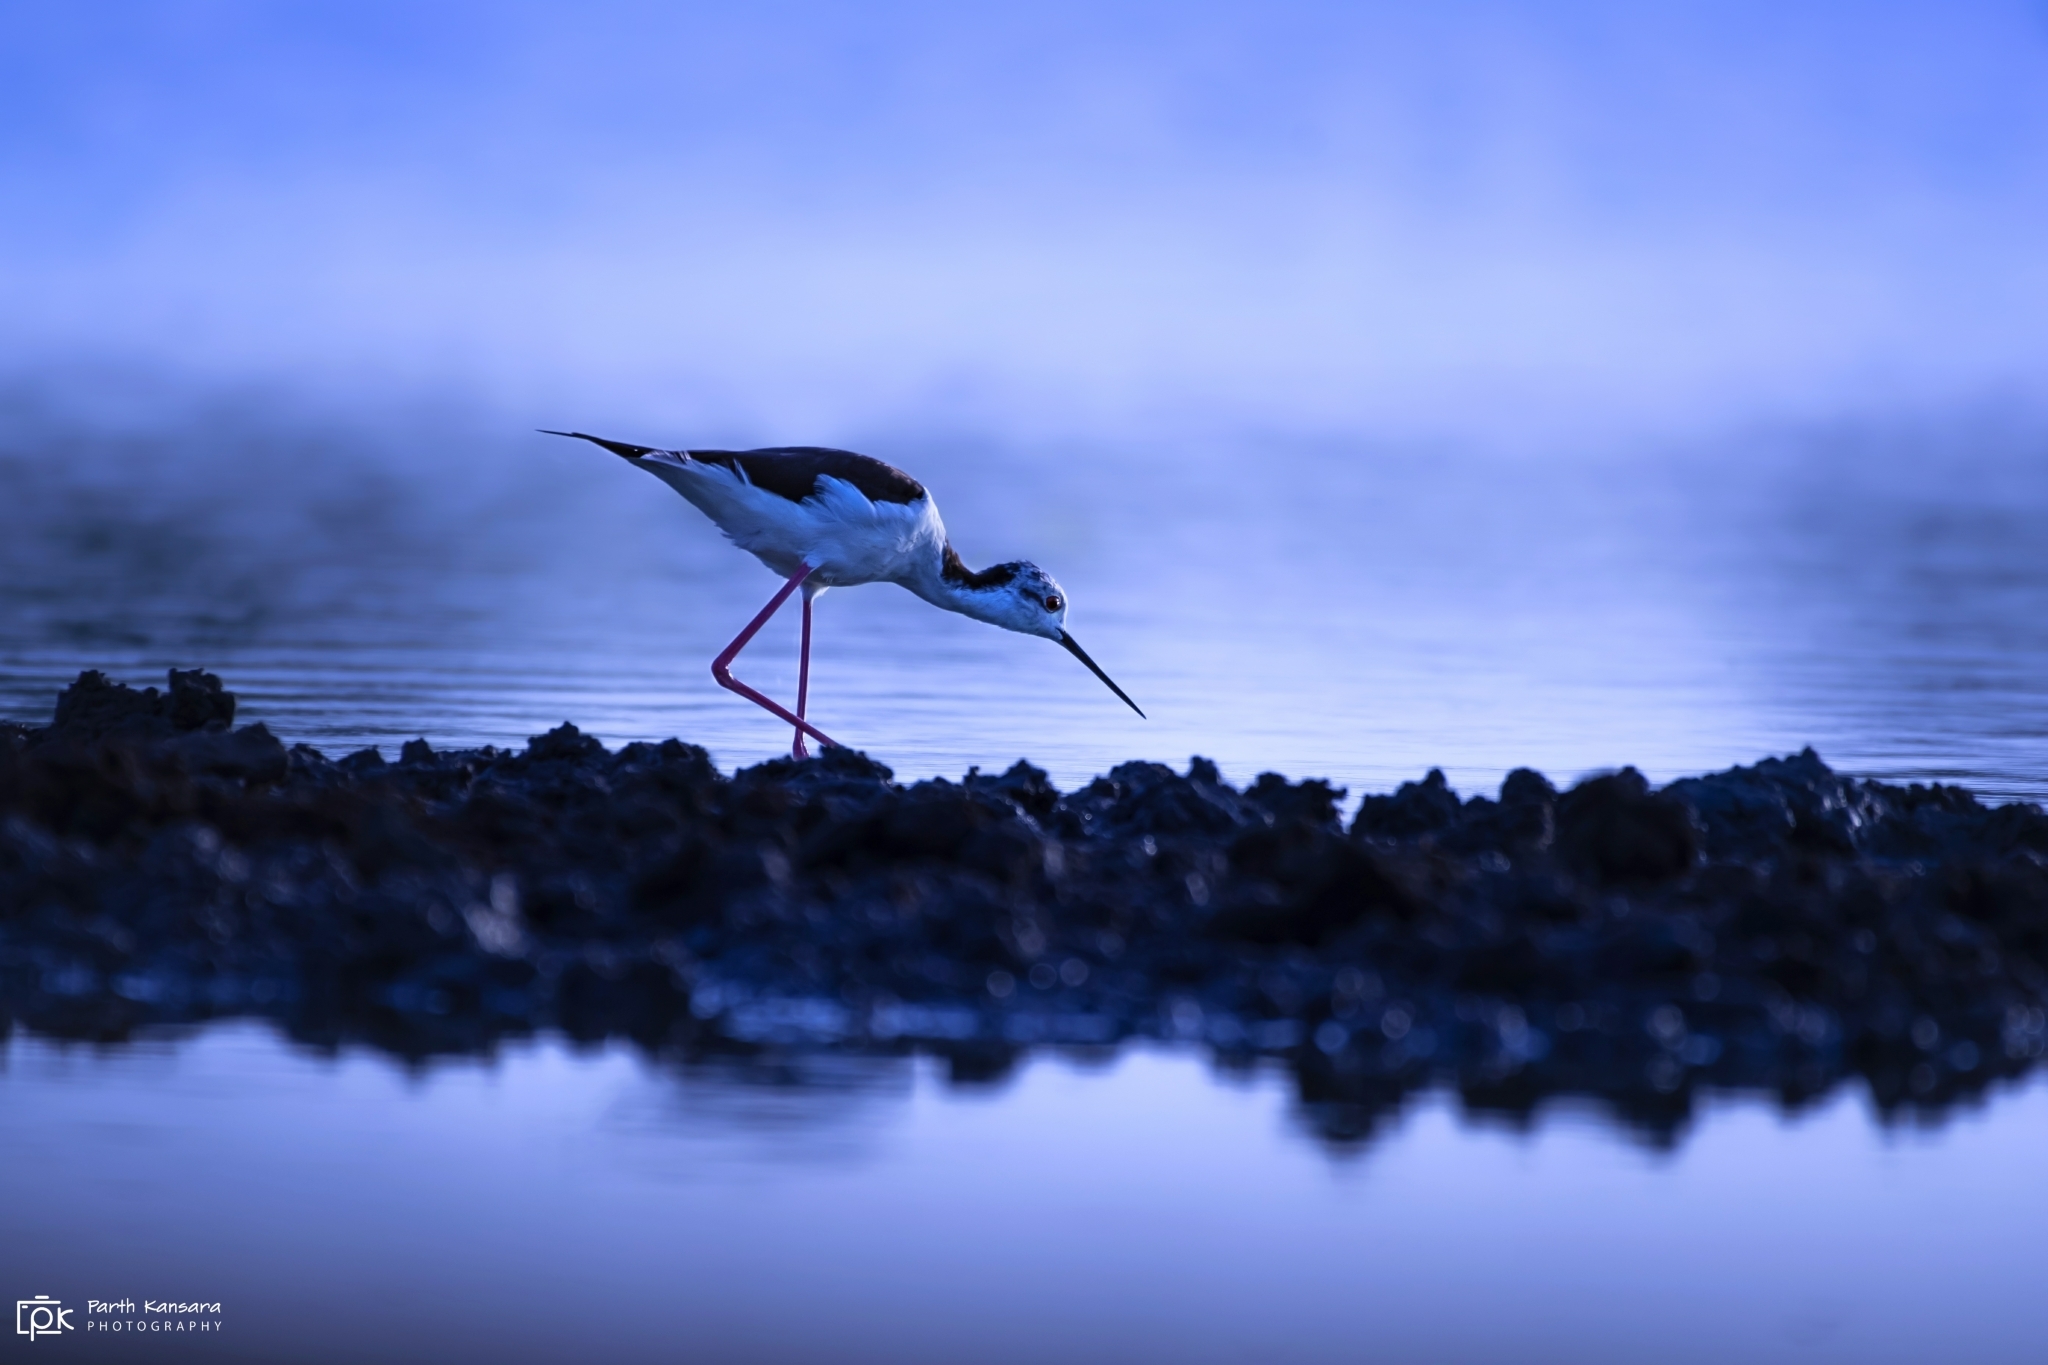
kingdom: Animalia
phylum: Chordata
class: Aves
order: Charadriiformes
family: Recurvirostridae
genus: Himantopus
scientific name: Himantopus himantopus
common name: Black-winged stilt
